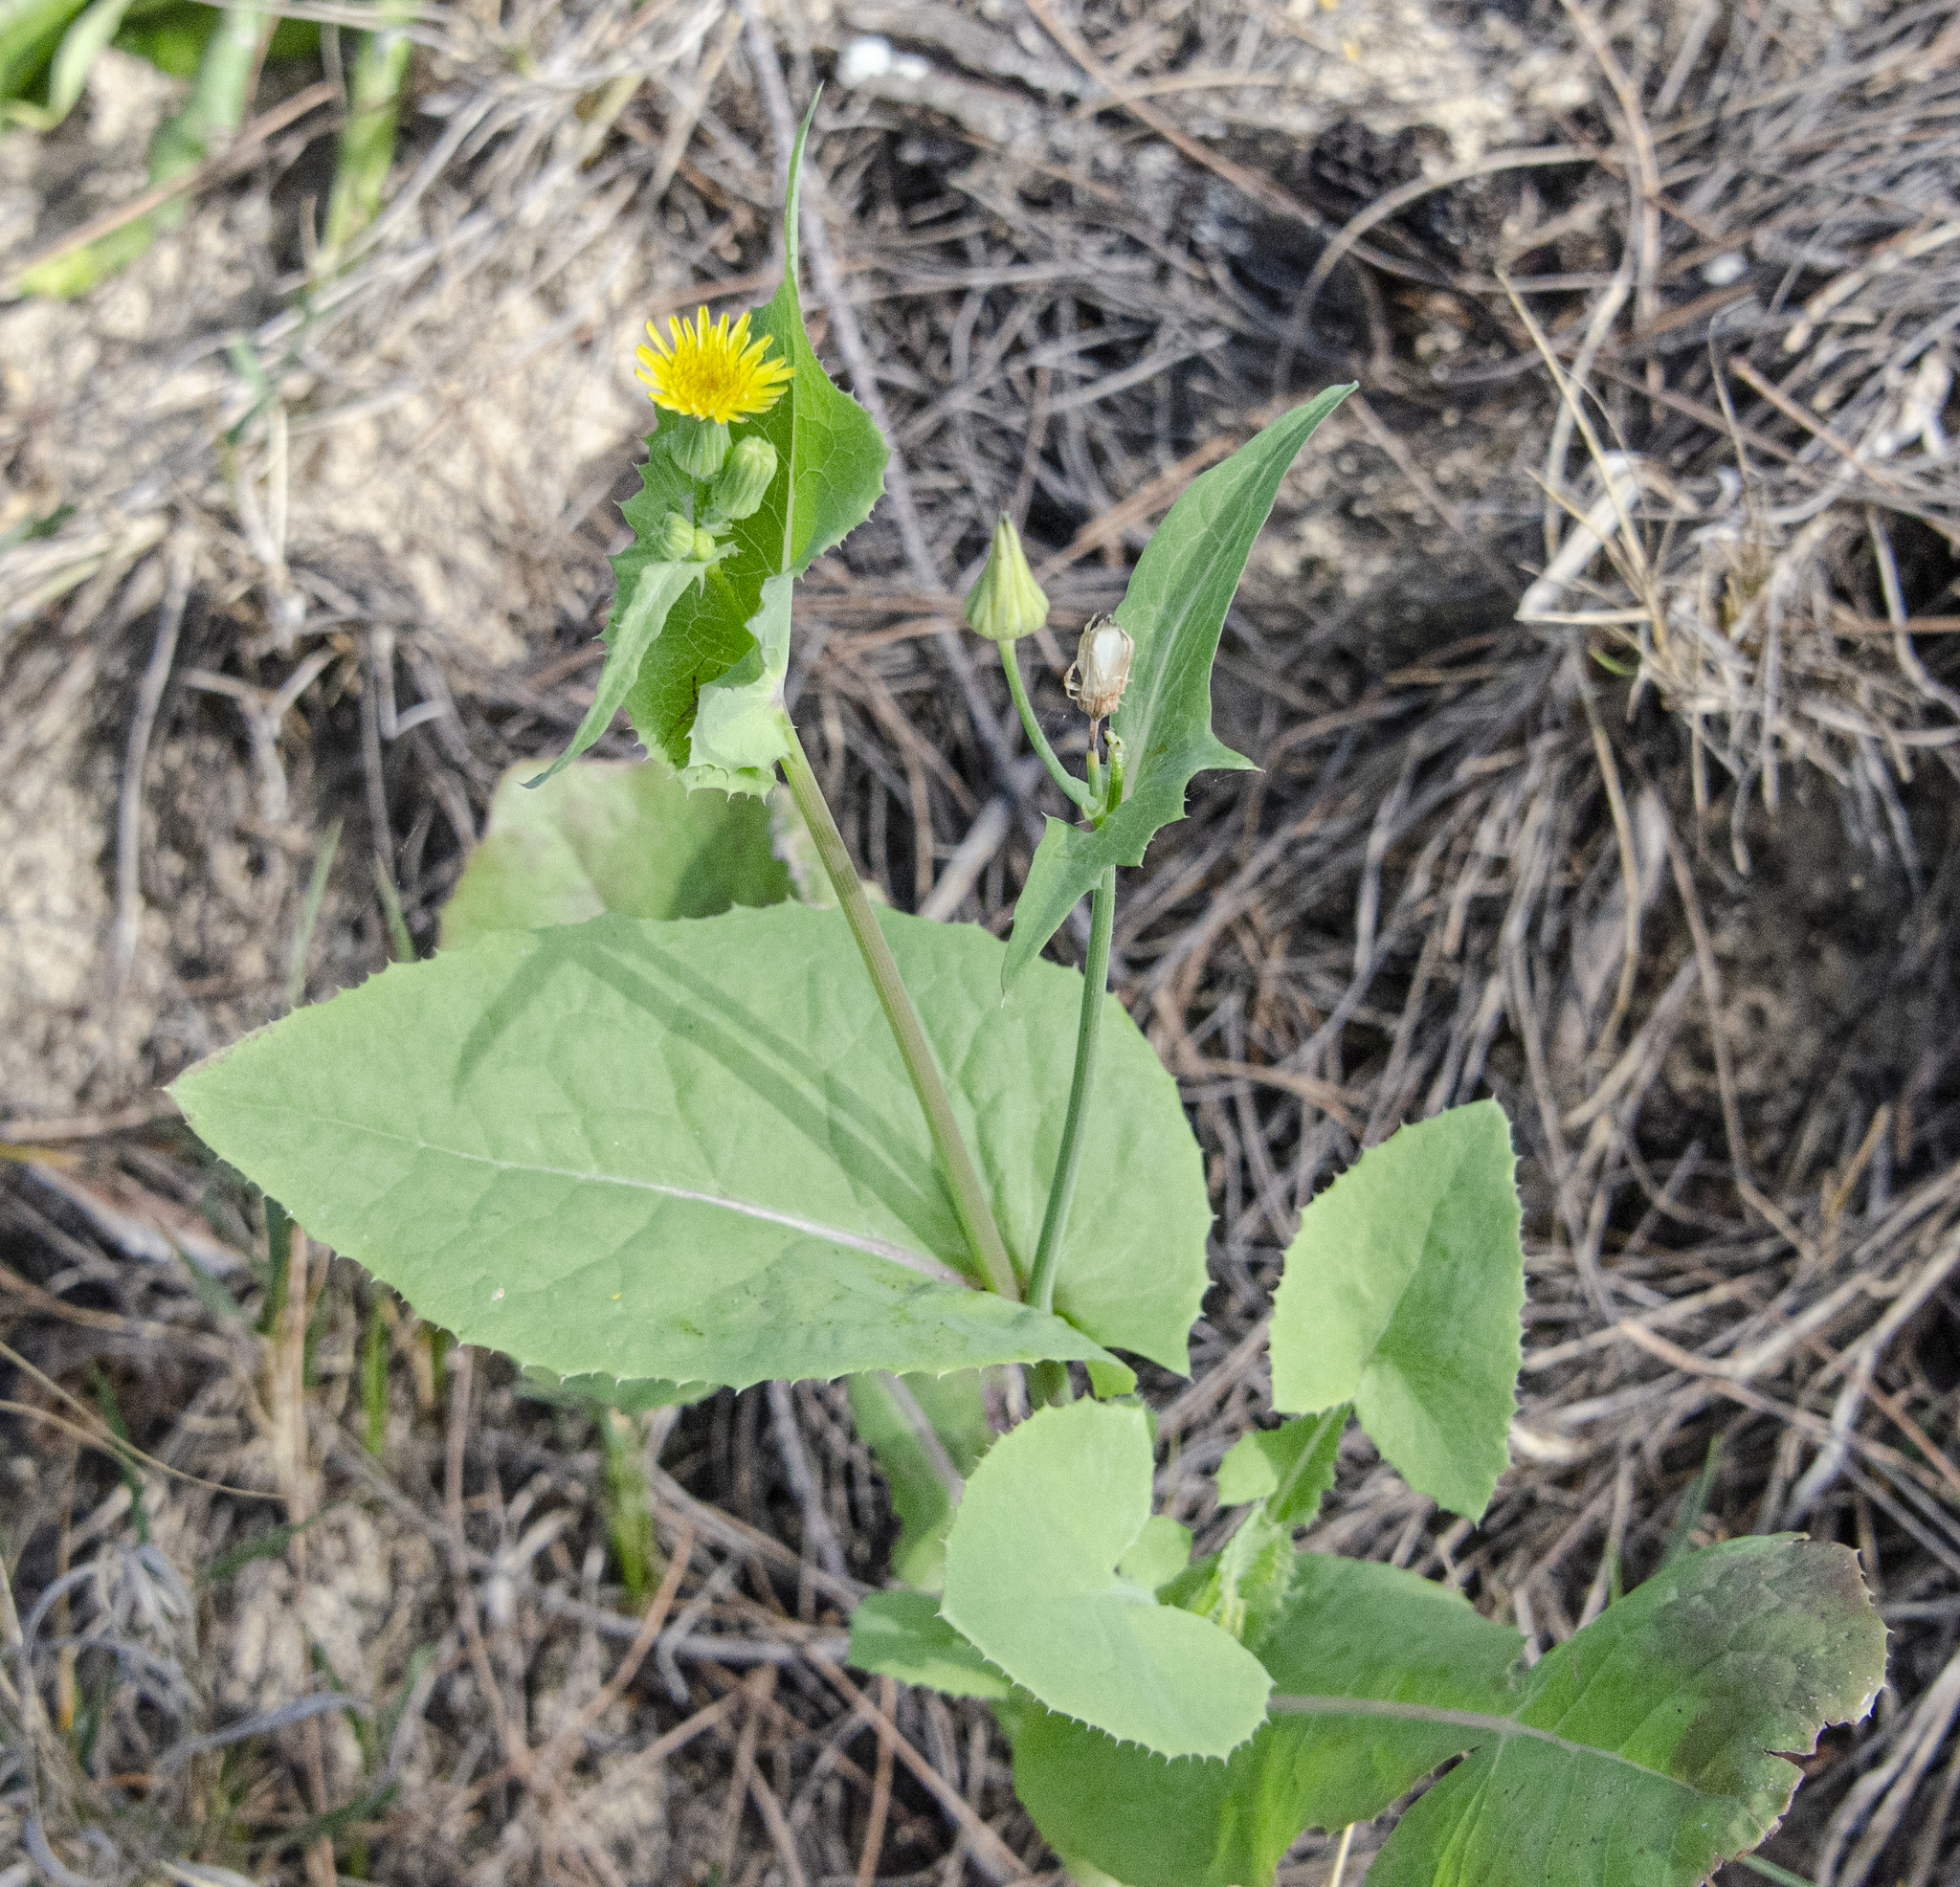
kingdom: Plantae
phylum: Tracheophyta
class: Magnoliopsida
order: Asterales
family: Asteraceae
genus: Sonchus
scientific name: Sonchus oleraceus
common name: Common sowthistle
